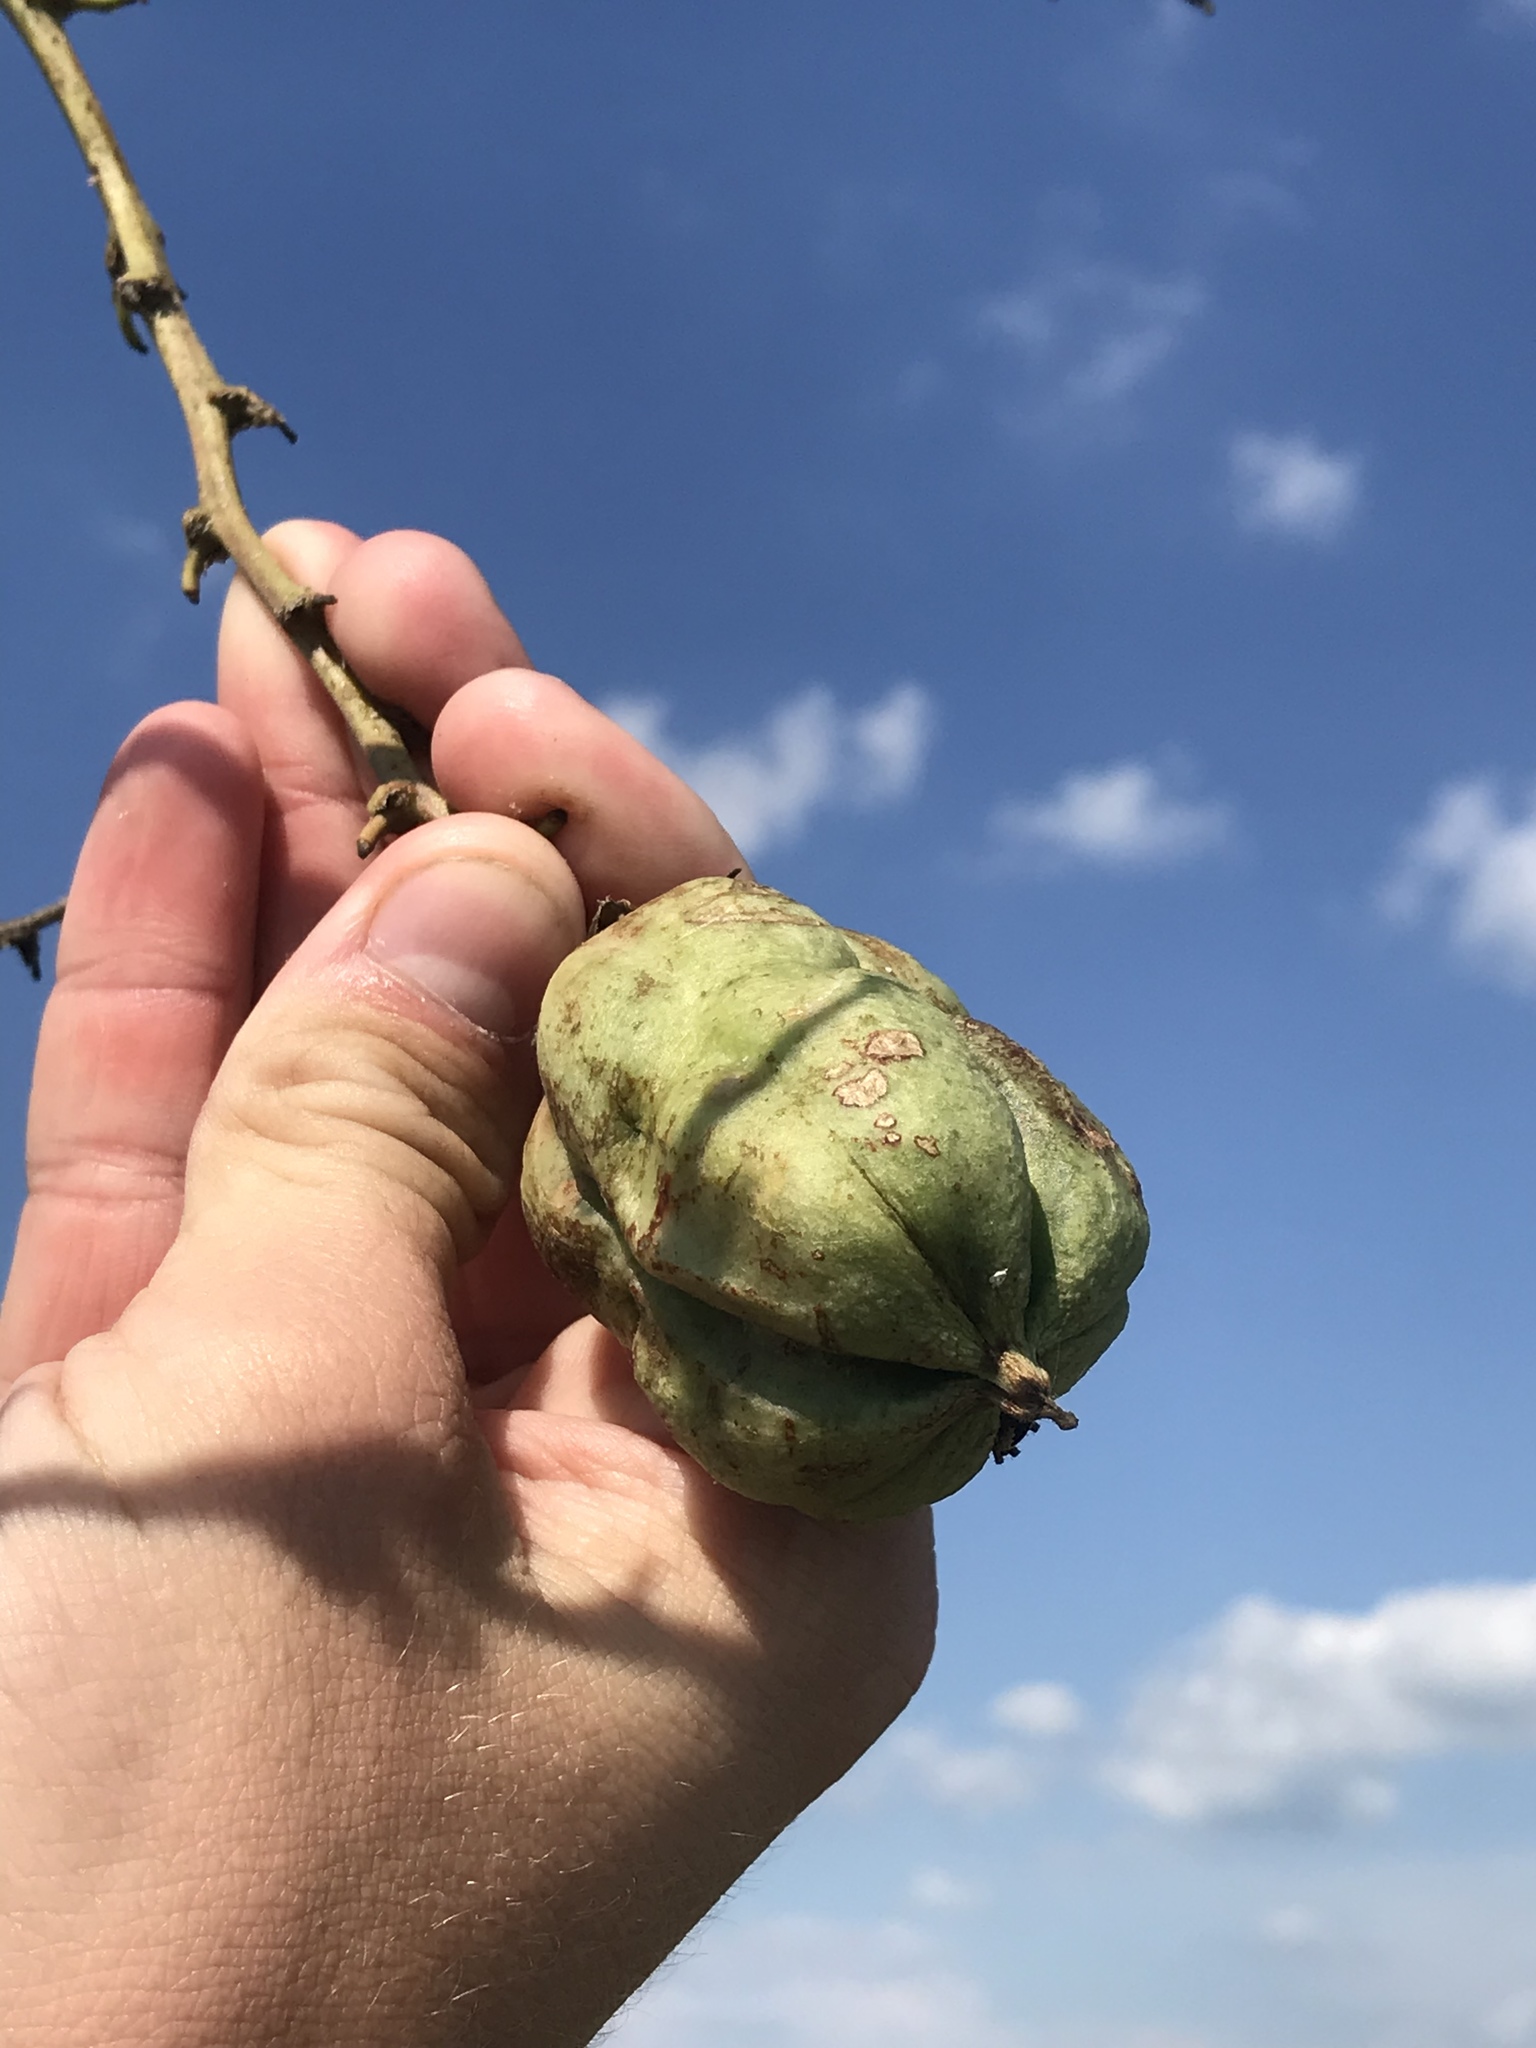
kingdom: Plantae
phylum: Tracheophyta
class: Liliopsida
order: Asparagales
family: Asparagaceae
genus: Yucca
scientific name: Yucca flaccida
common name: Adam's-needle
